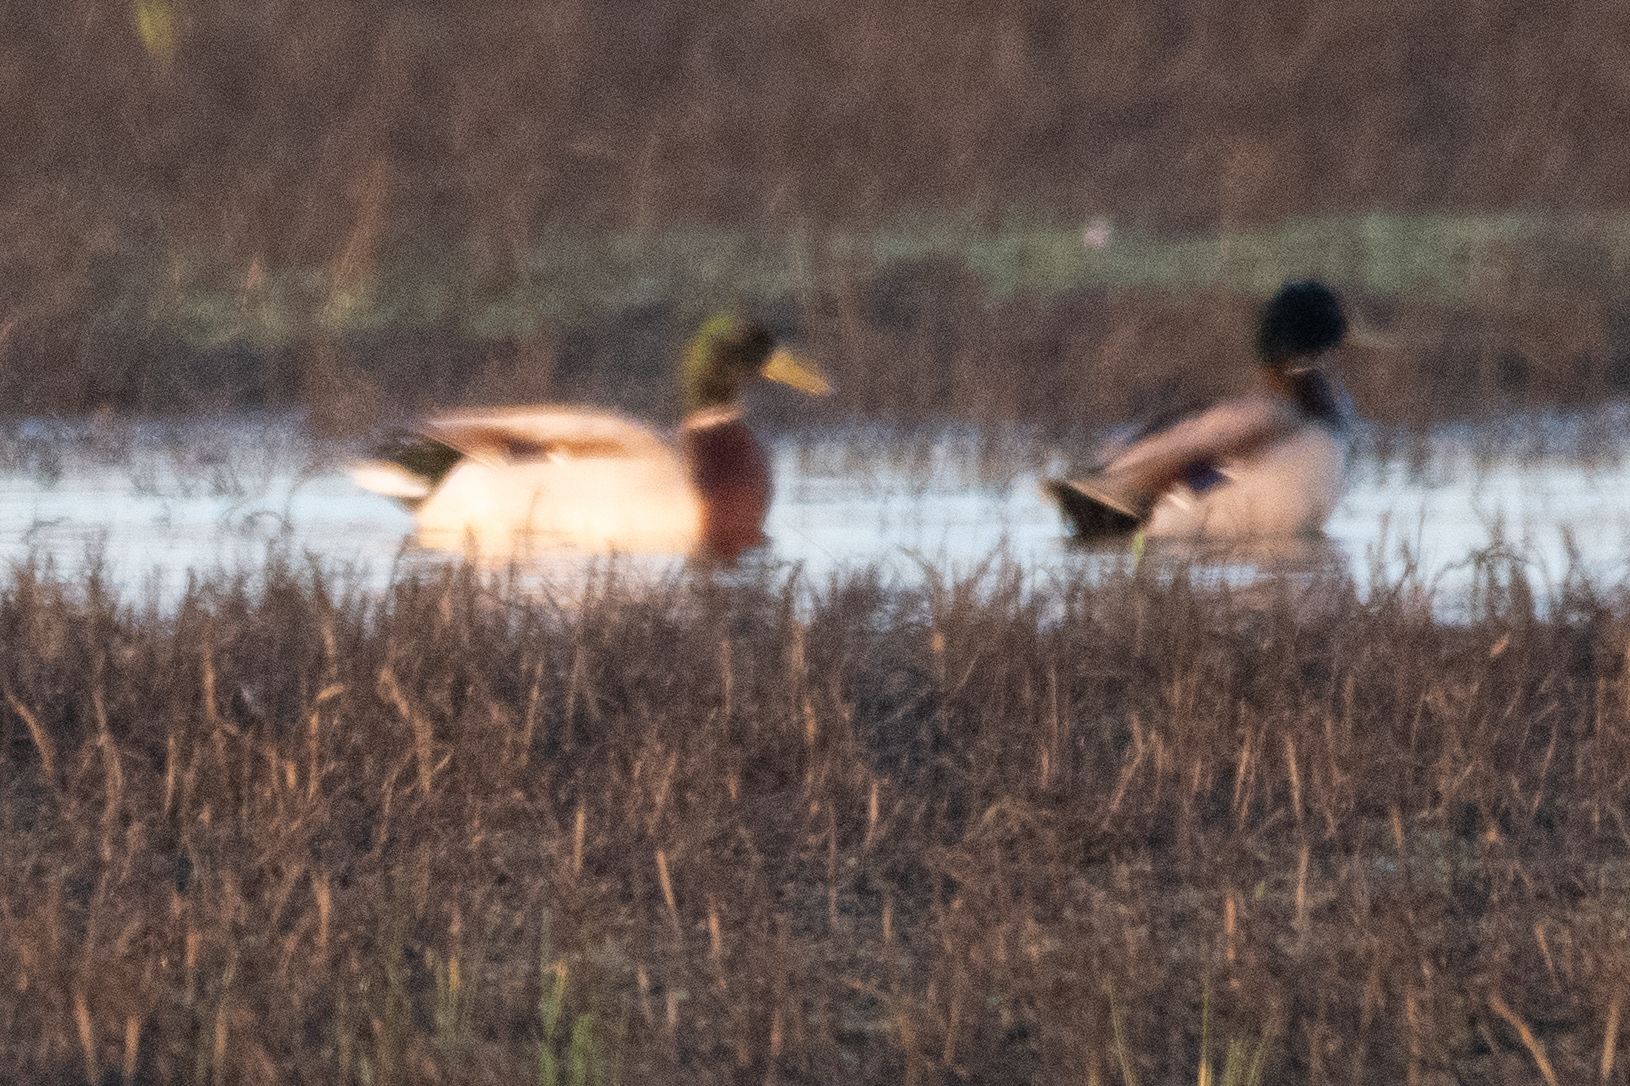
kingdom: Animalia
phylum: Chordata
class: Aves
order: Anseriformes
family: Anatidae
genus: Anas
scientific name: Anas platyrhynchos
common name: Mallard
